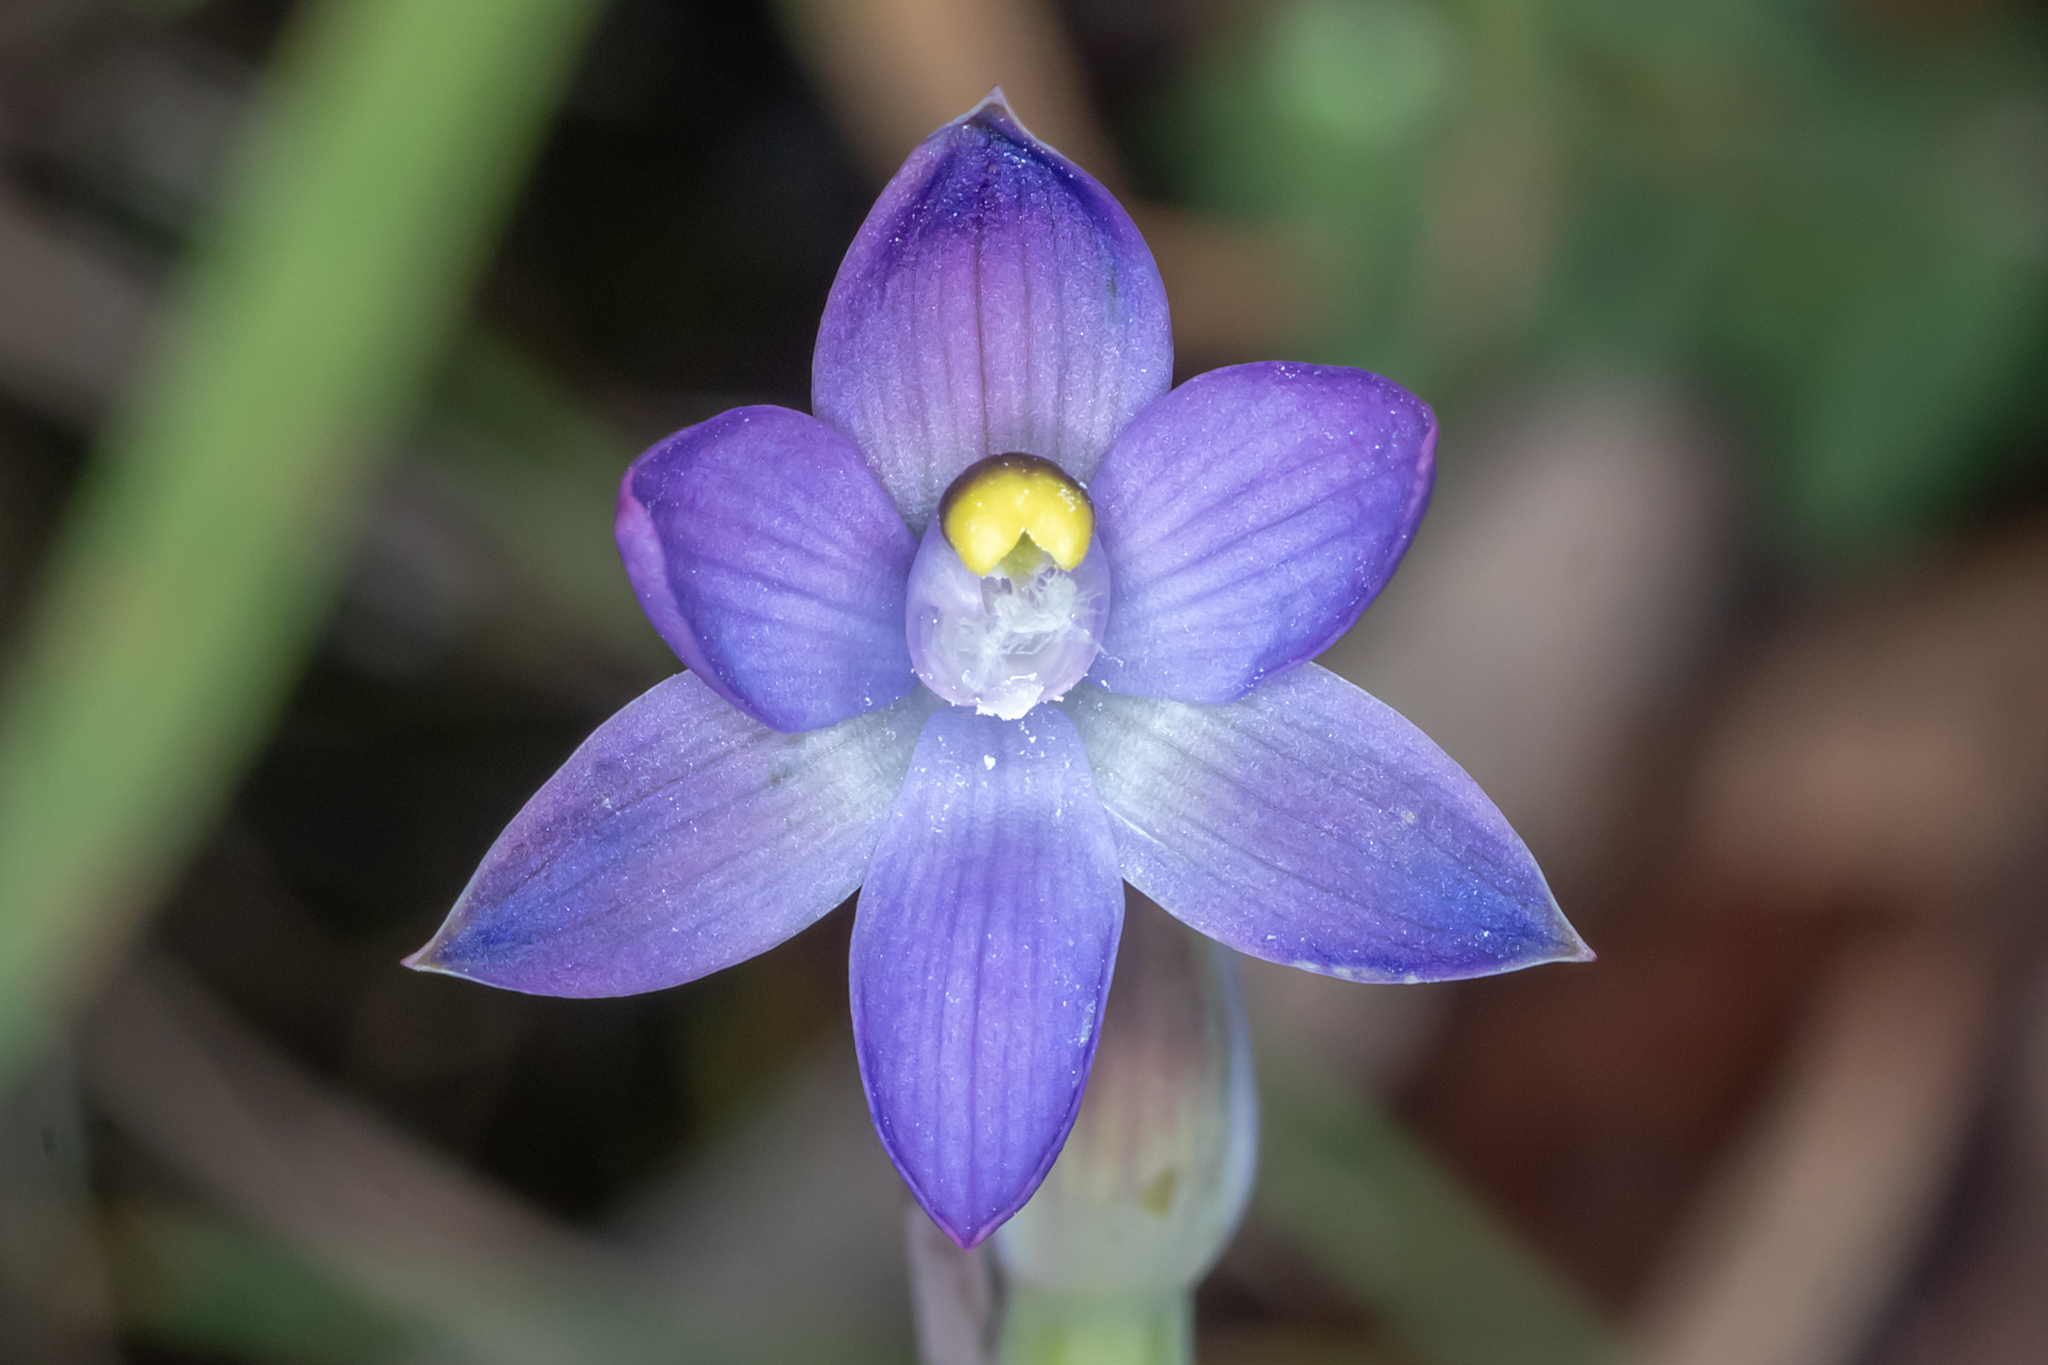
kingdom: Plantae
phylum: Tracheophyta
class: Liliopsida
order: Asparagales
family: Orchidaceae
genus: Thelymitra
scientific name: Thelymitra peniculata
